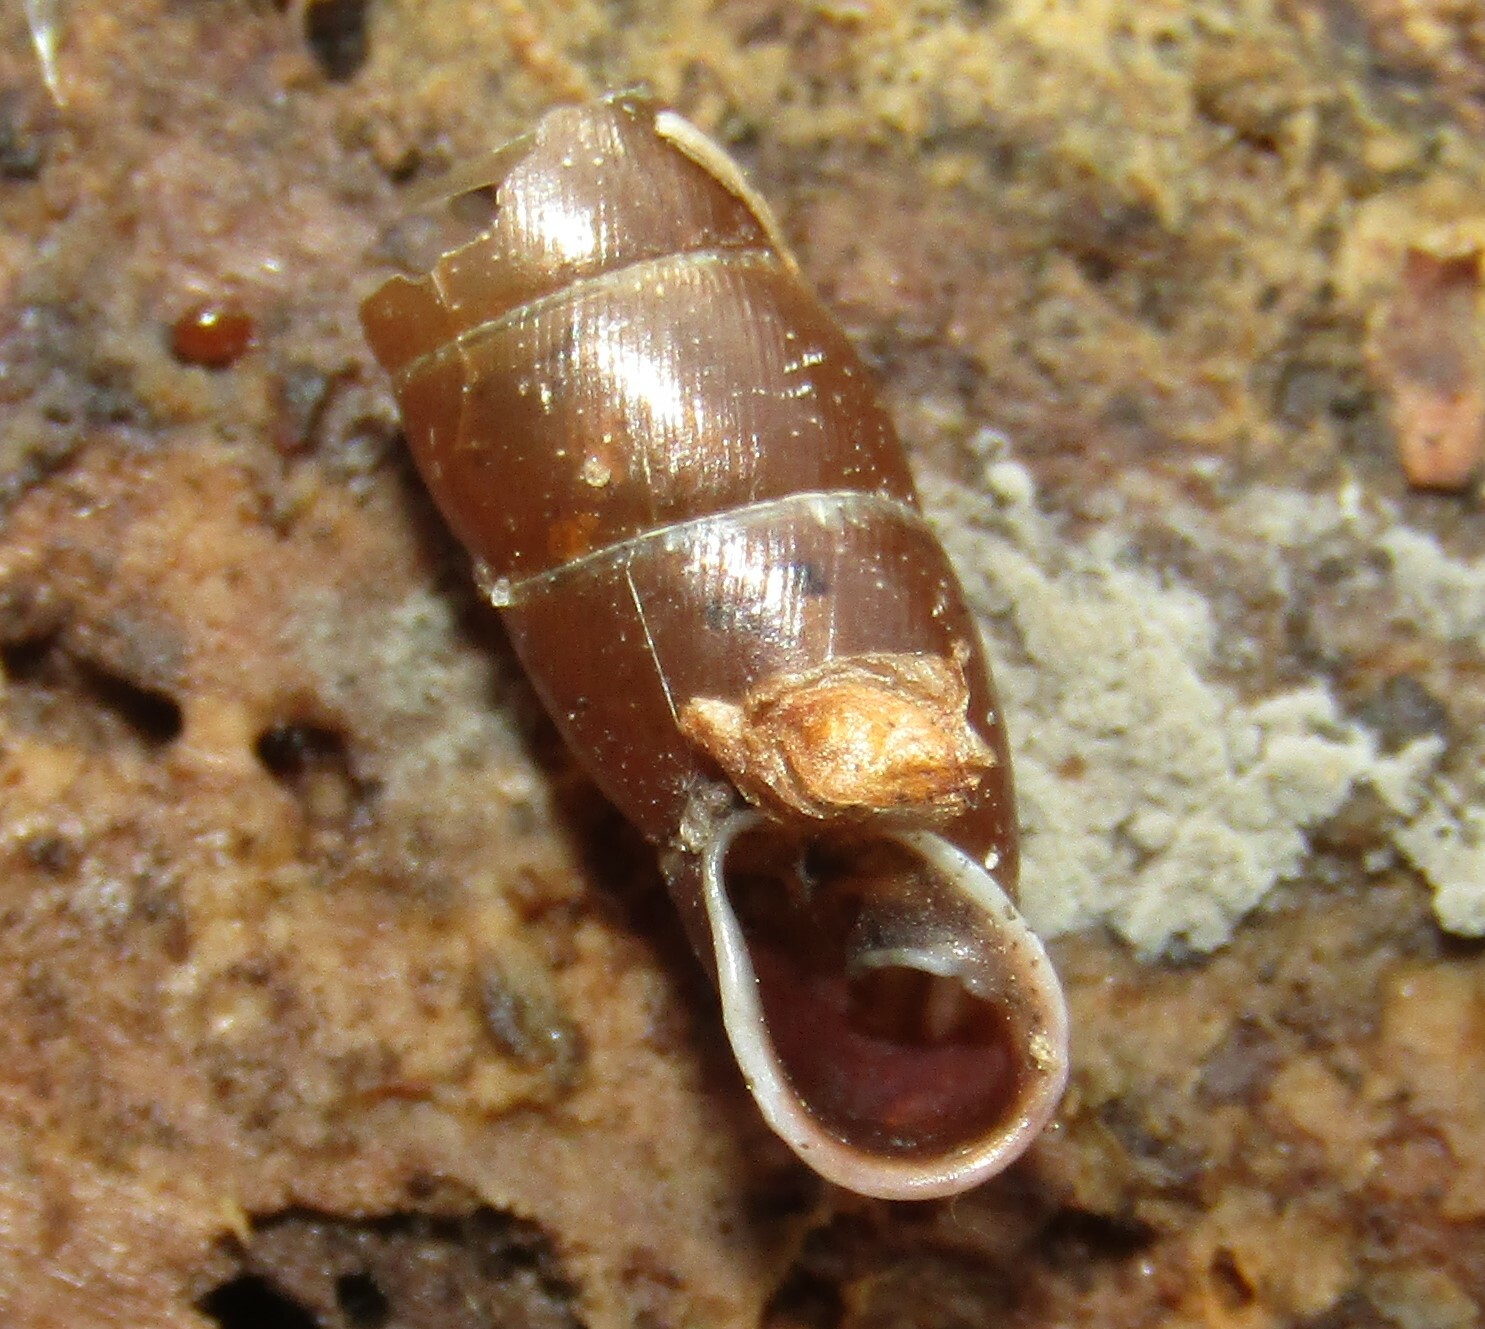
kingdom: Animalia
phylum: Mollusca
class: Gastropoda
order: Stylommatophora
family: Clausiliidae
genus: Cochlodina
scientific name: Cochlodina laminata
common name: Plaited door snail
